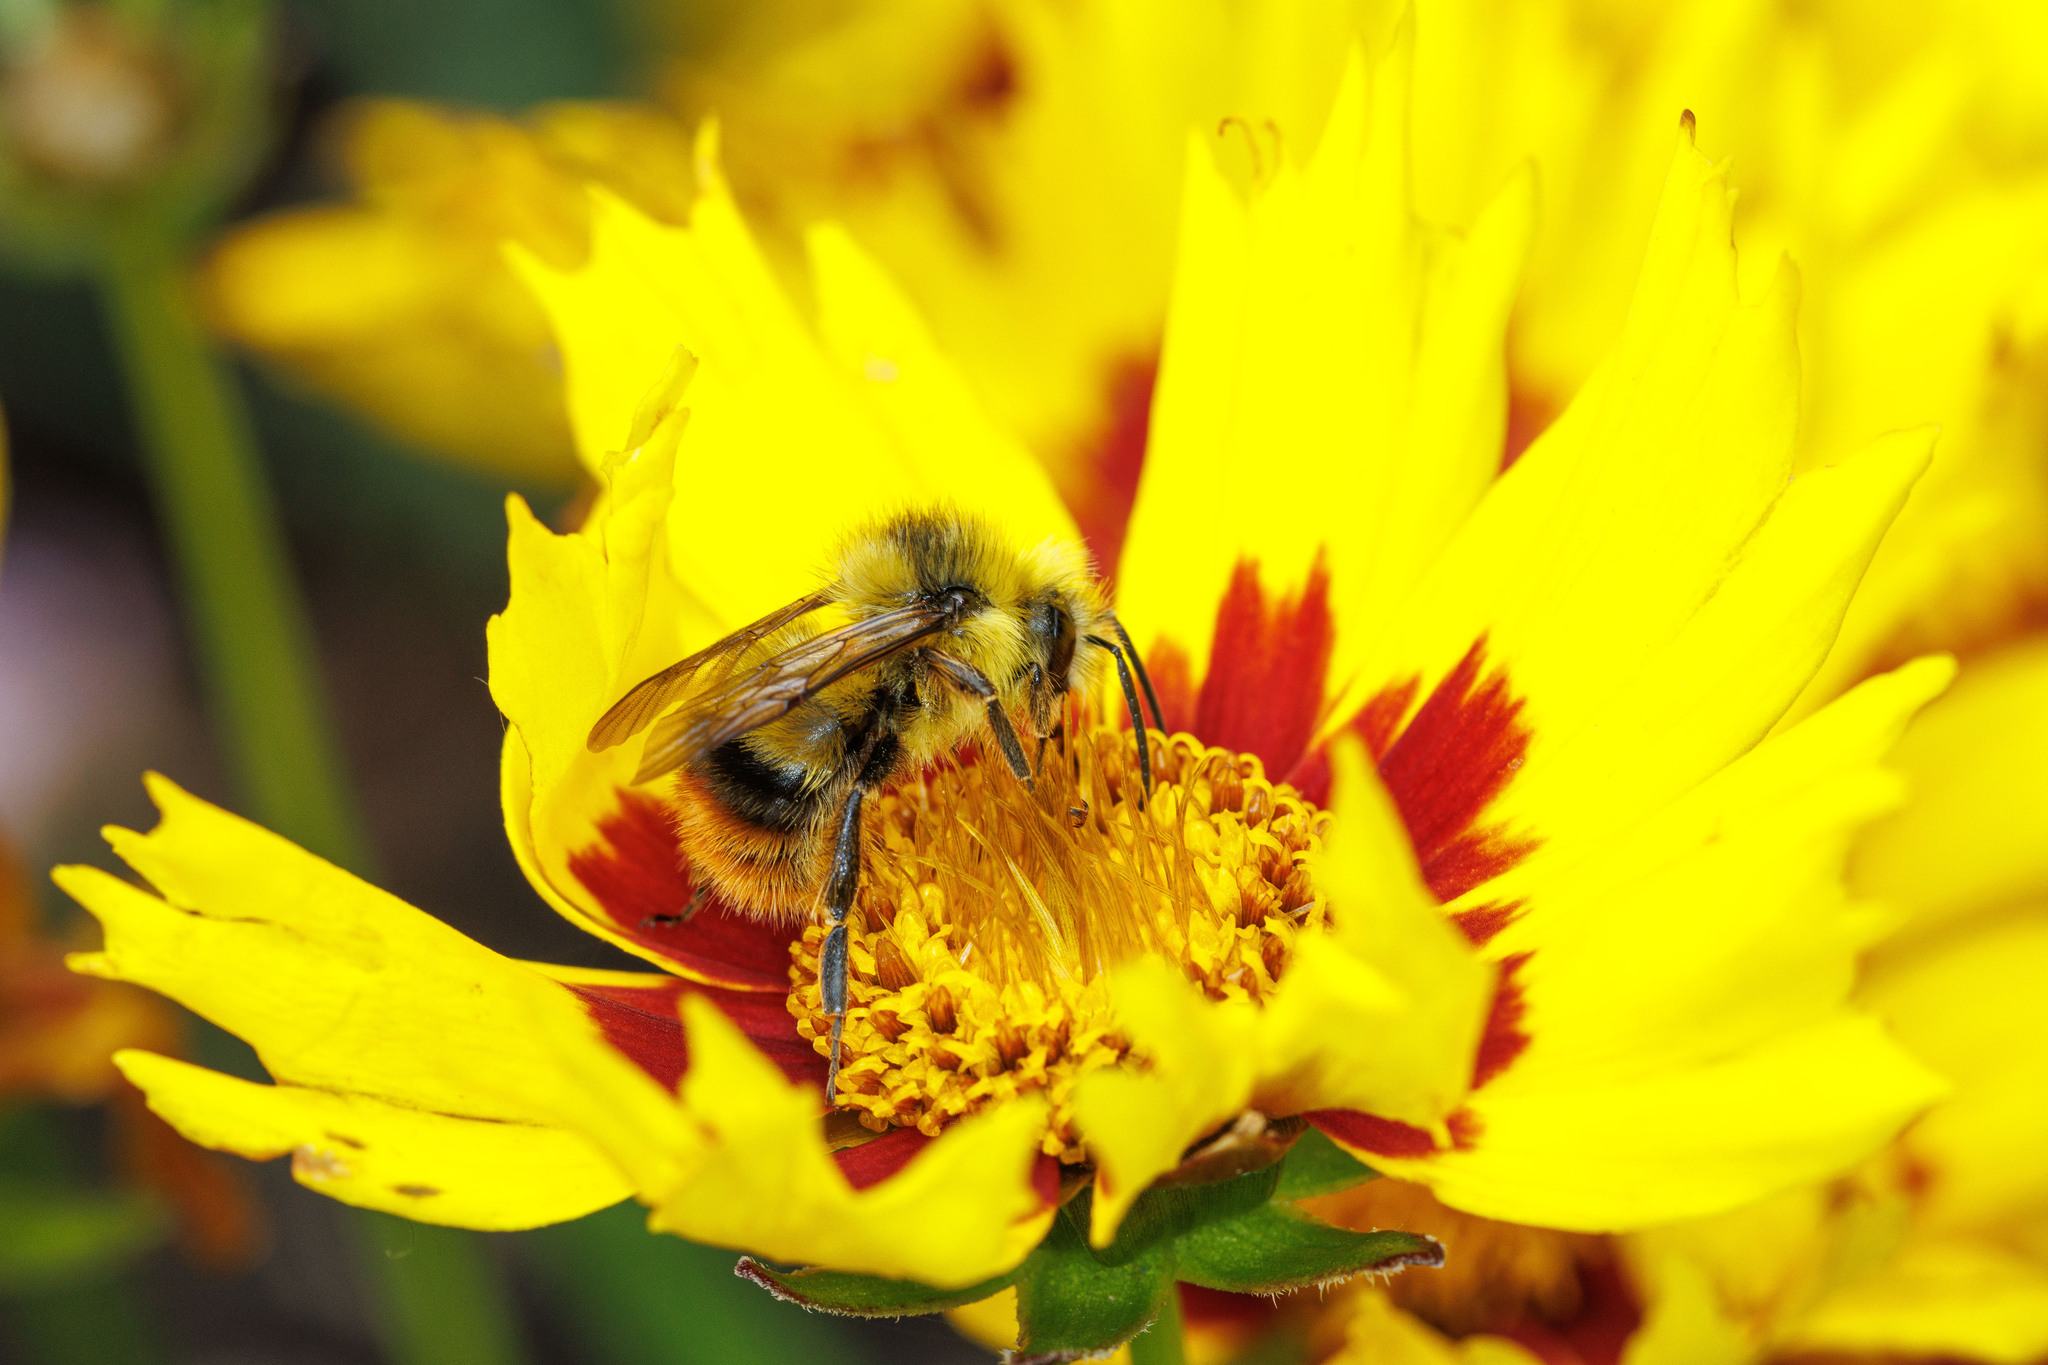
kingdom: Animalia
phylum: Arthropoda
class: Insecta
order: Hymenoptera
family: Apidae
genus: Bombus
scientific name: Bombus mixtus
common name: Fuzzy-horned bumble bee
